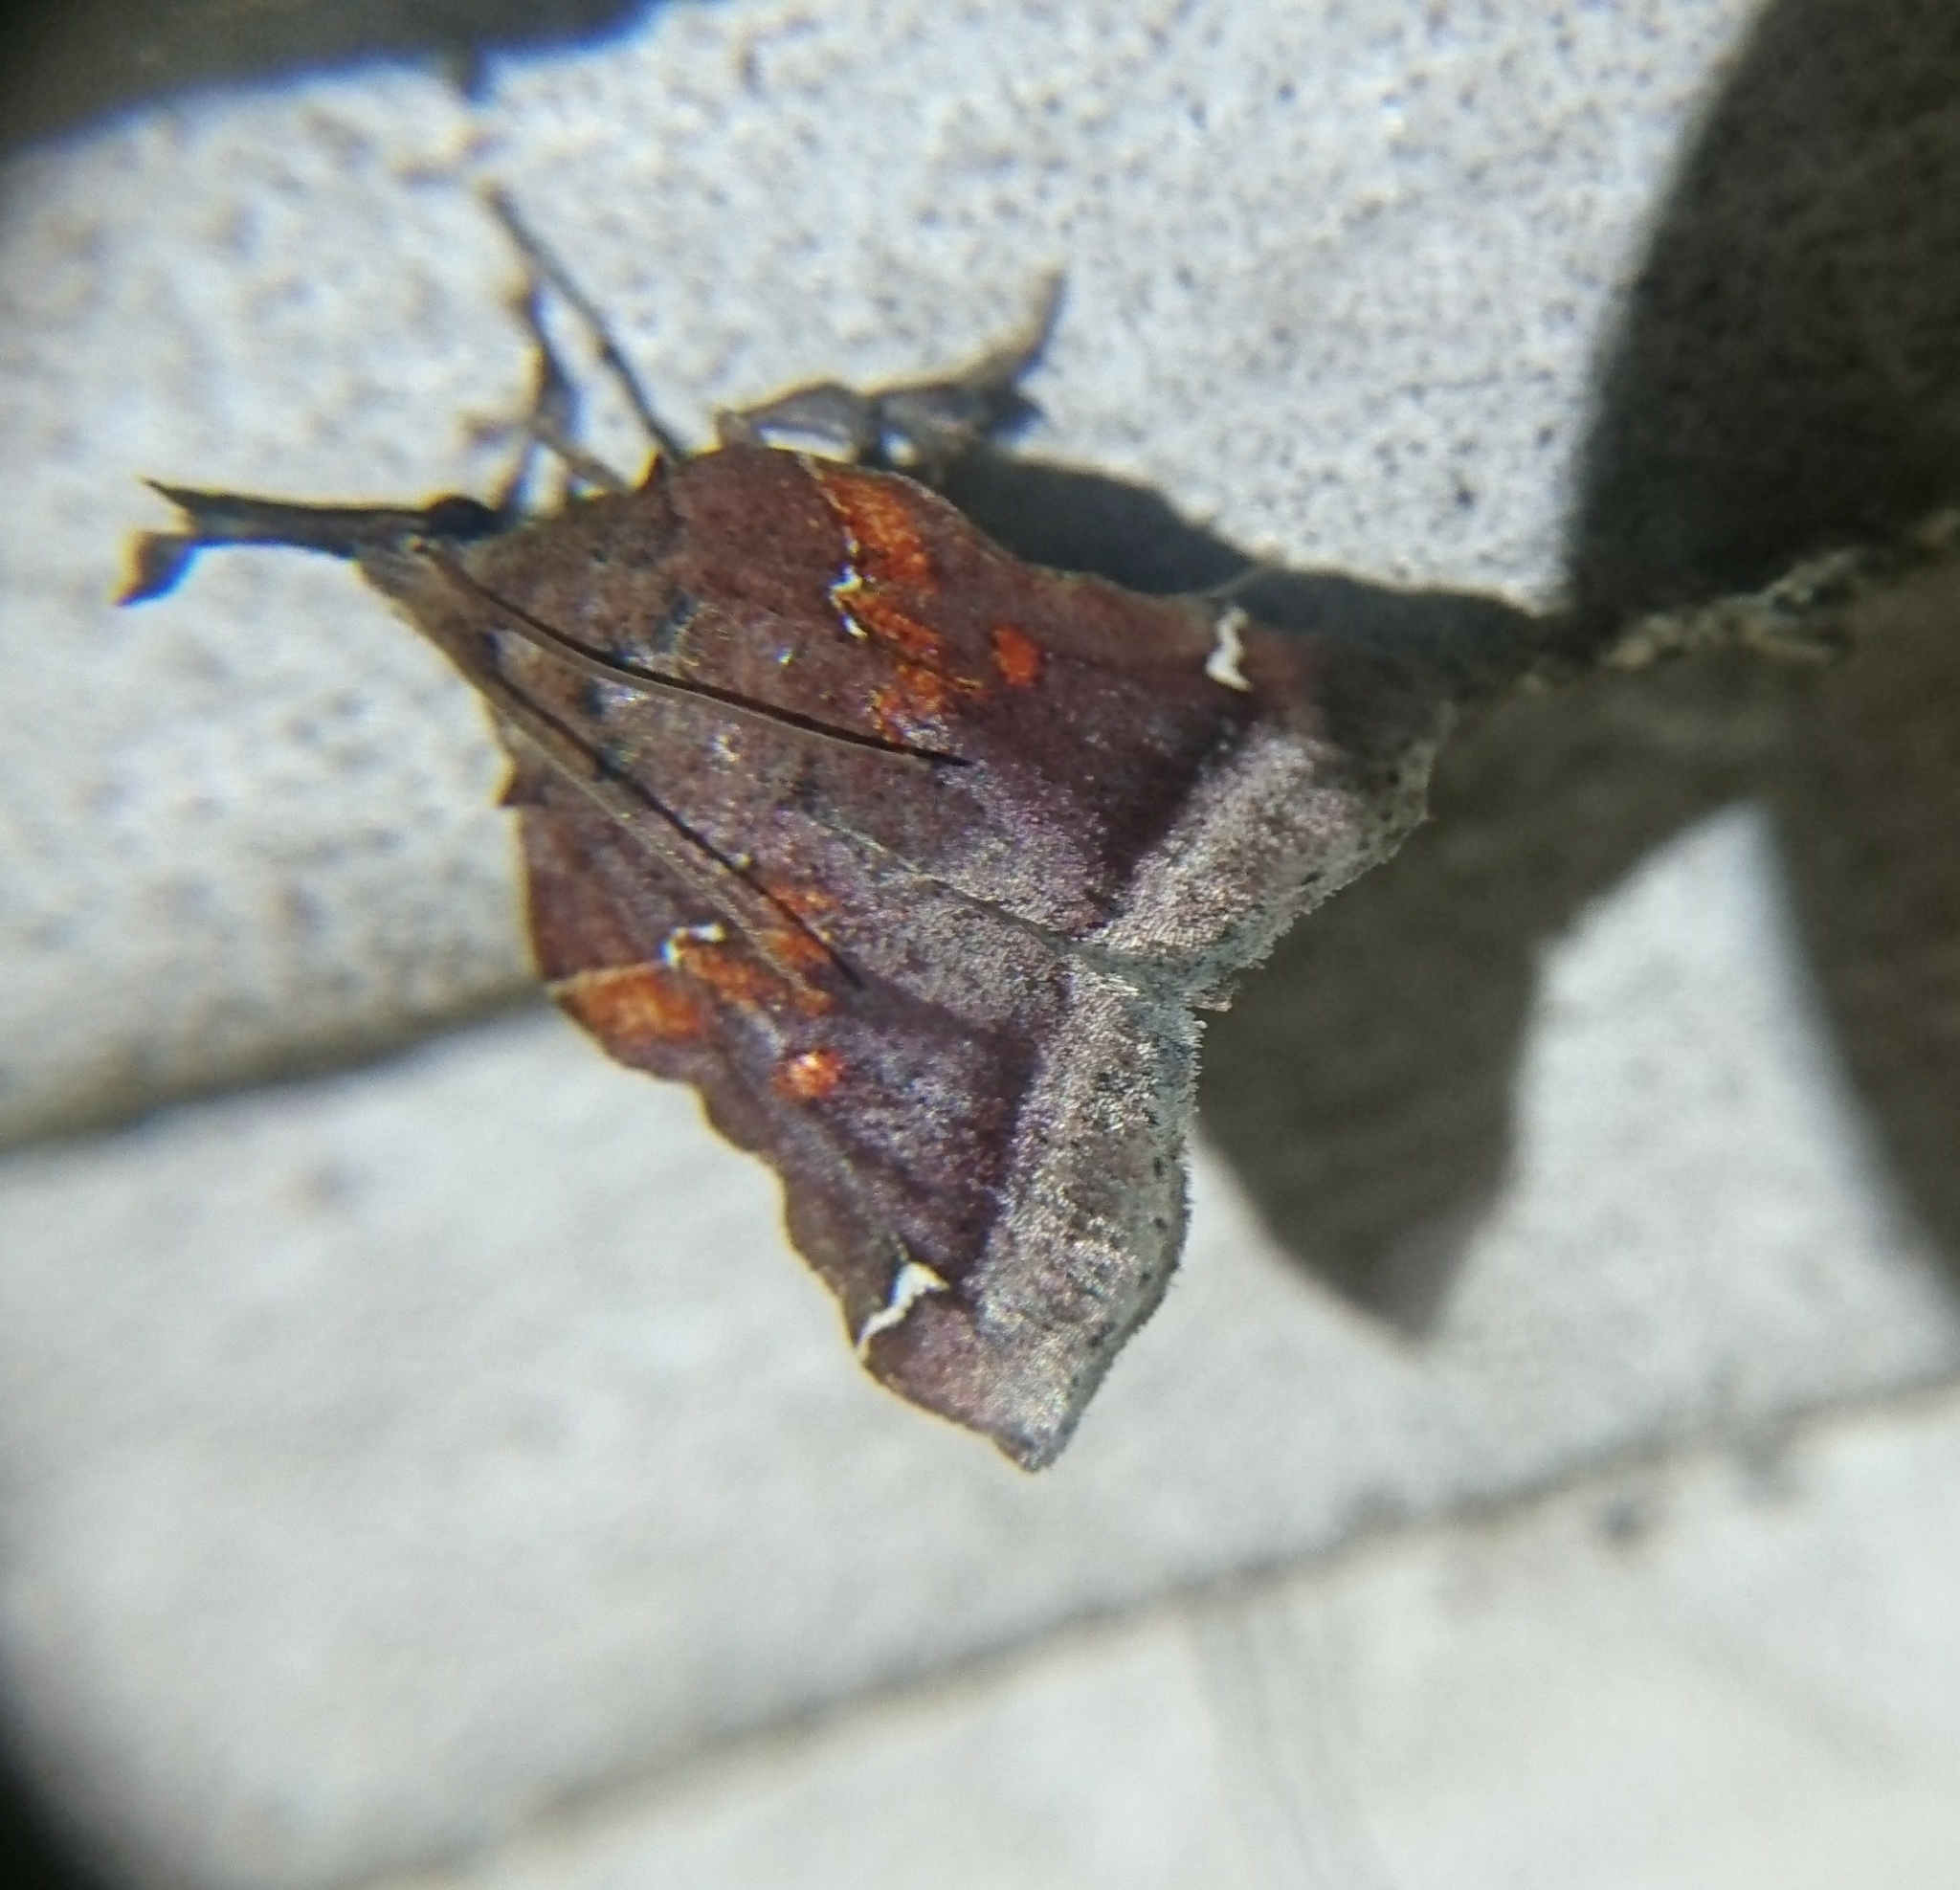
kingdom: Animalia
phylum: Arthropoda
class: Insecta
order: Lepidoptera
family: Pyralidae
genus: Clydonopteron
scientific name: Clydonopteron sacculana
